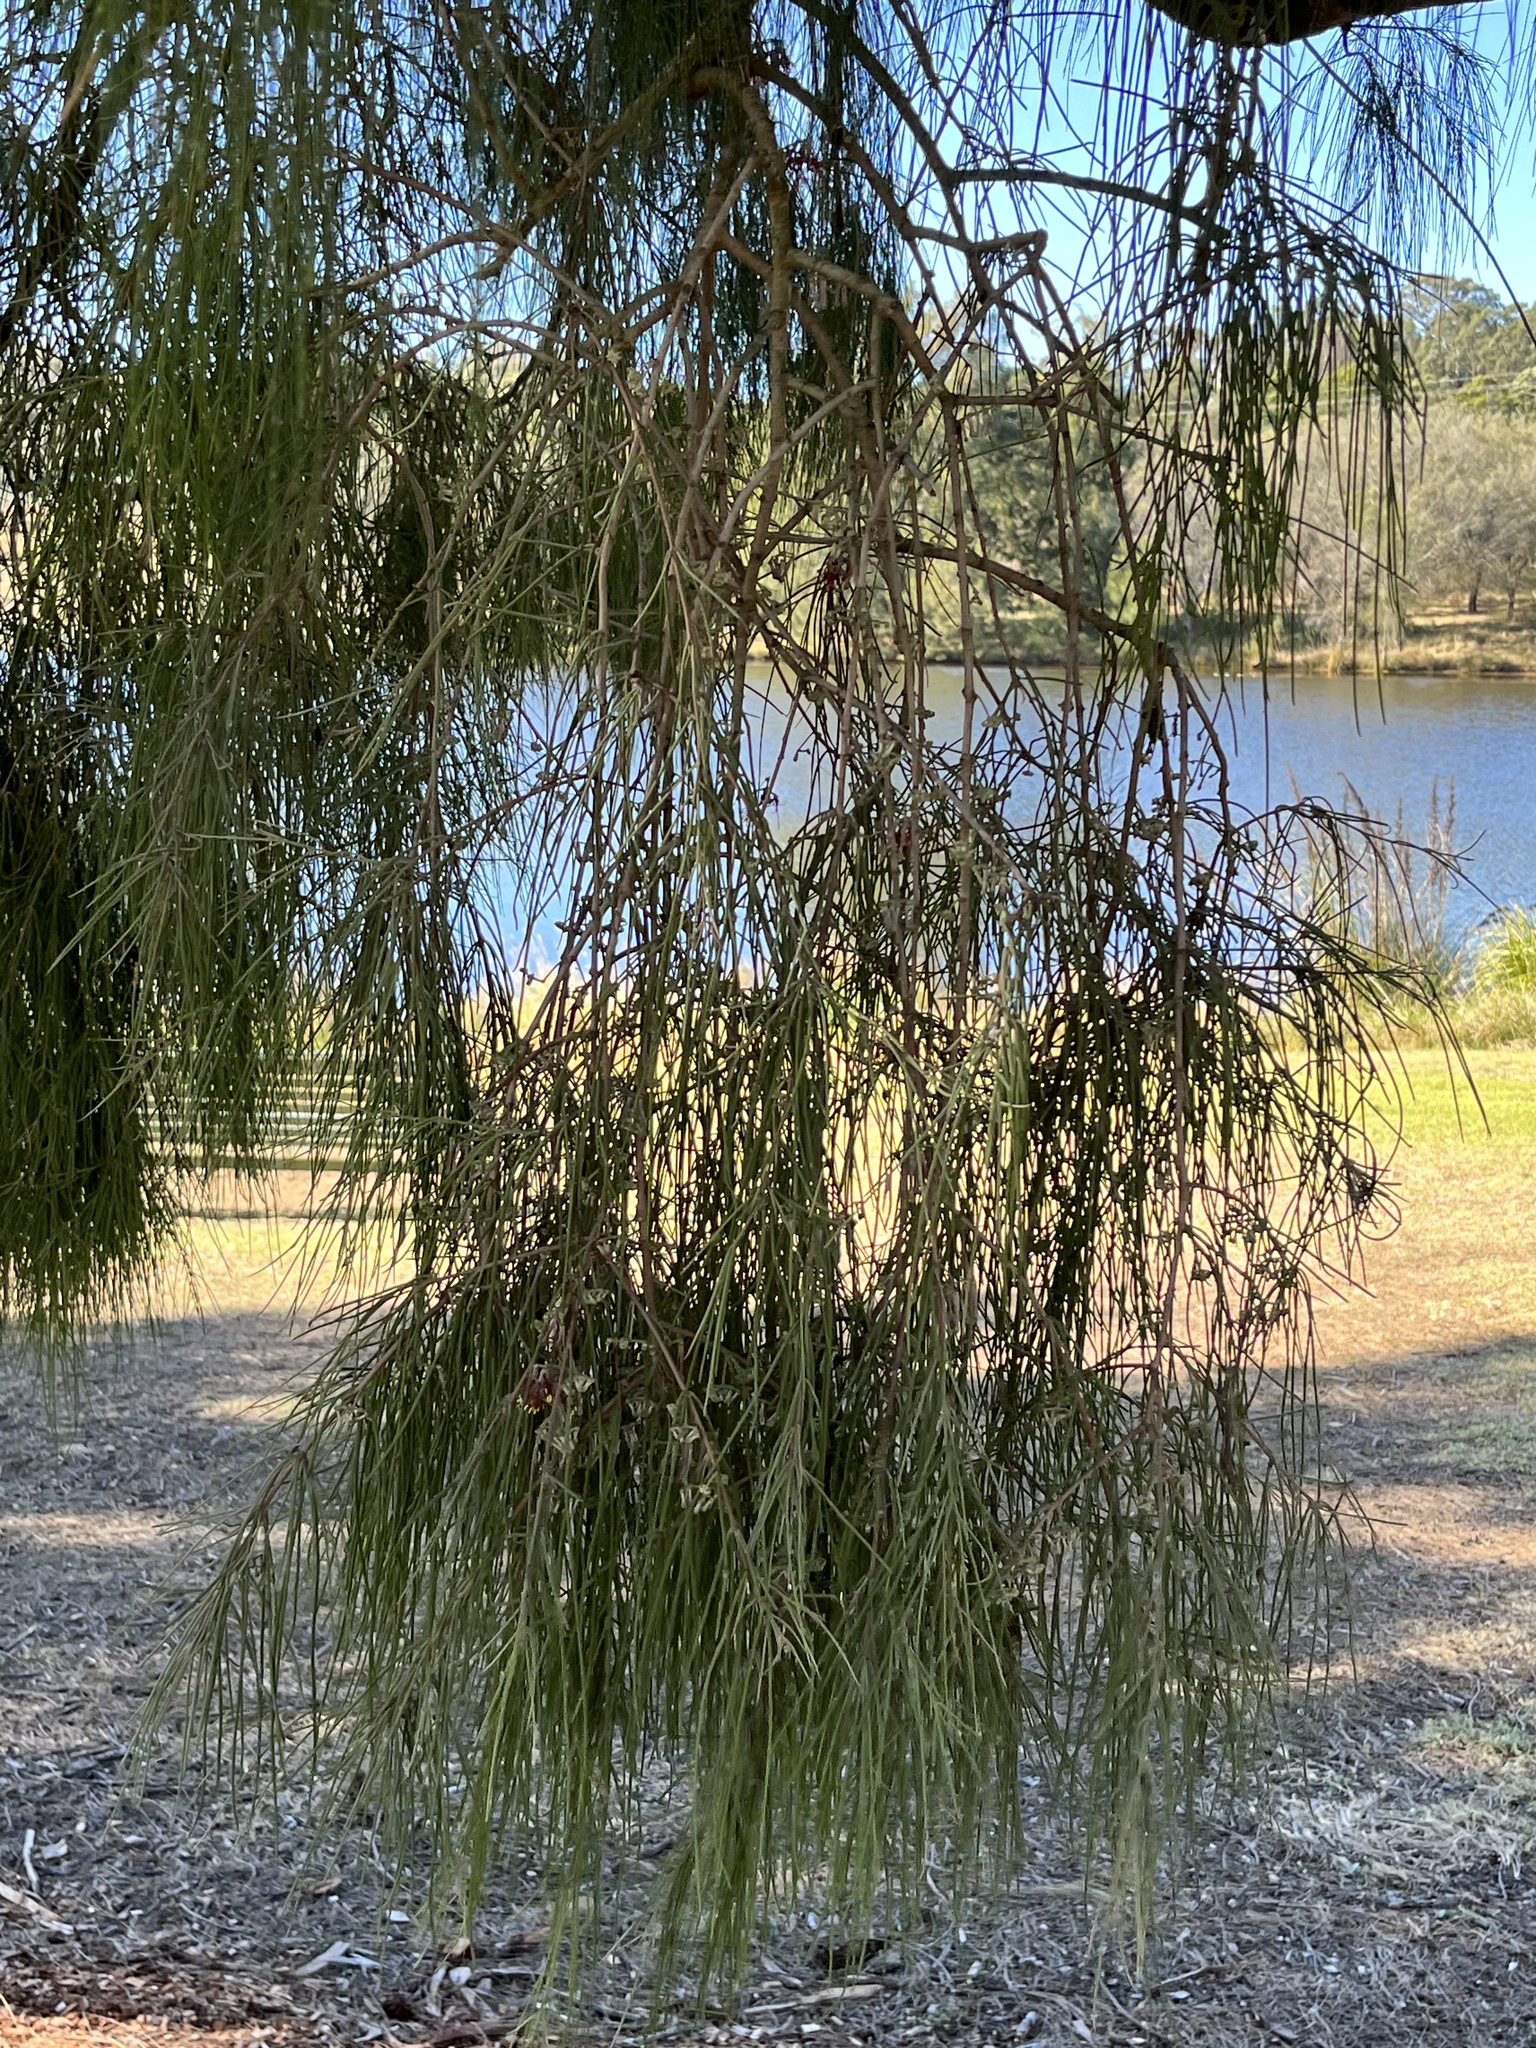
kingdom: Plantae
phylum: Tracheophyta
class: Magnoliopsida
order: Santalales
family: Loranthaceae
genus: Amyema
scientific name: Amyema cambagei
